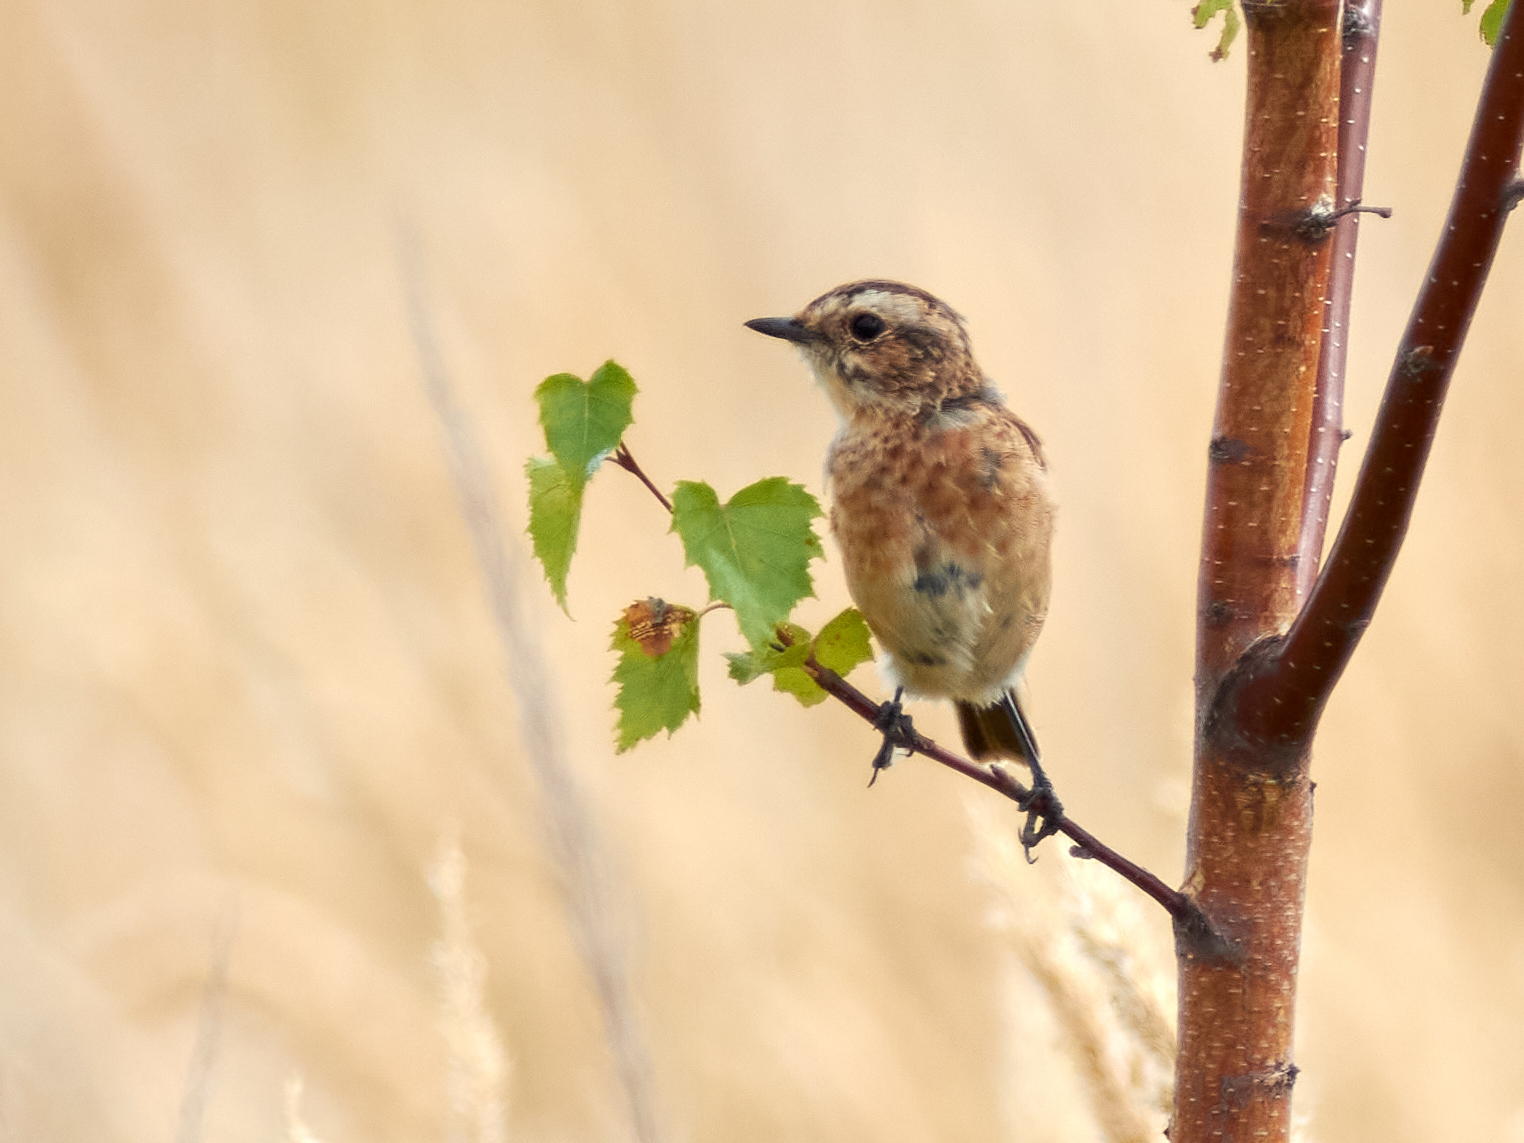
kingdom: Animalia
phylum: Chordata
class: Aves
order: Passeriformes
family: Muscicapidae
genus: Saxicola
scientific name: Saxicola rubetra
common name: Whinchat
